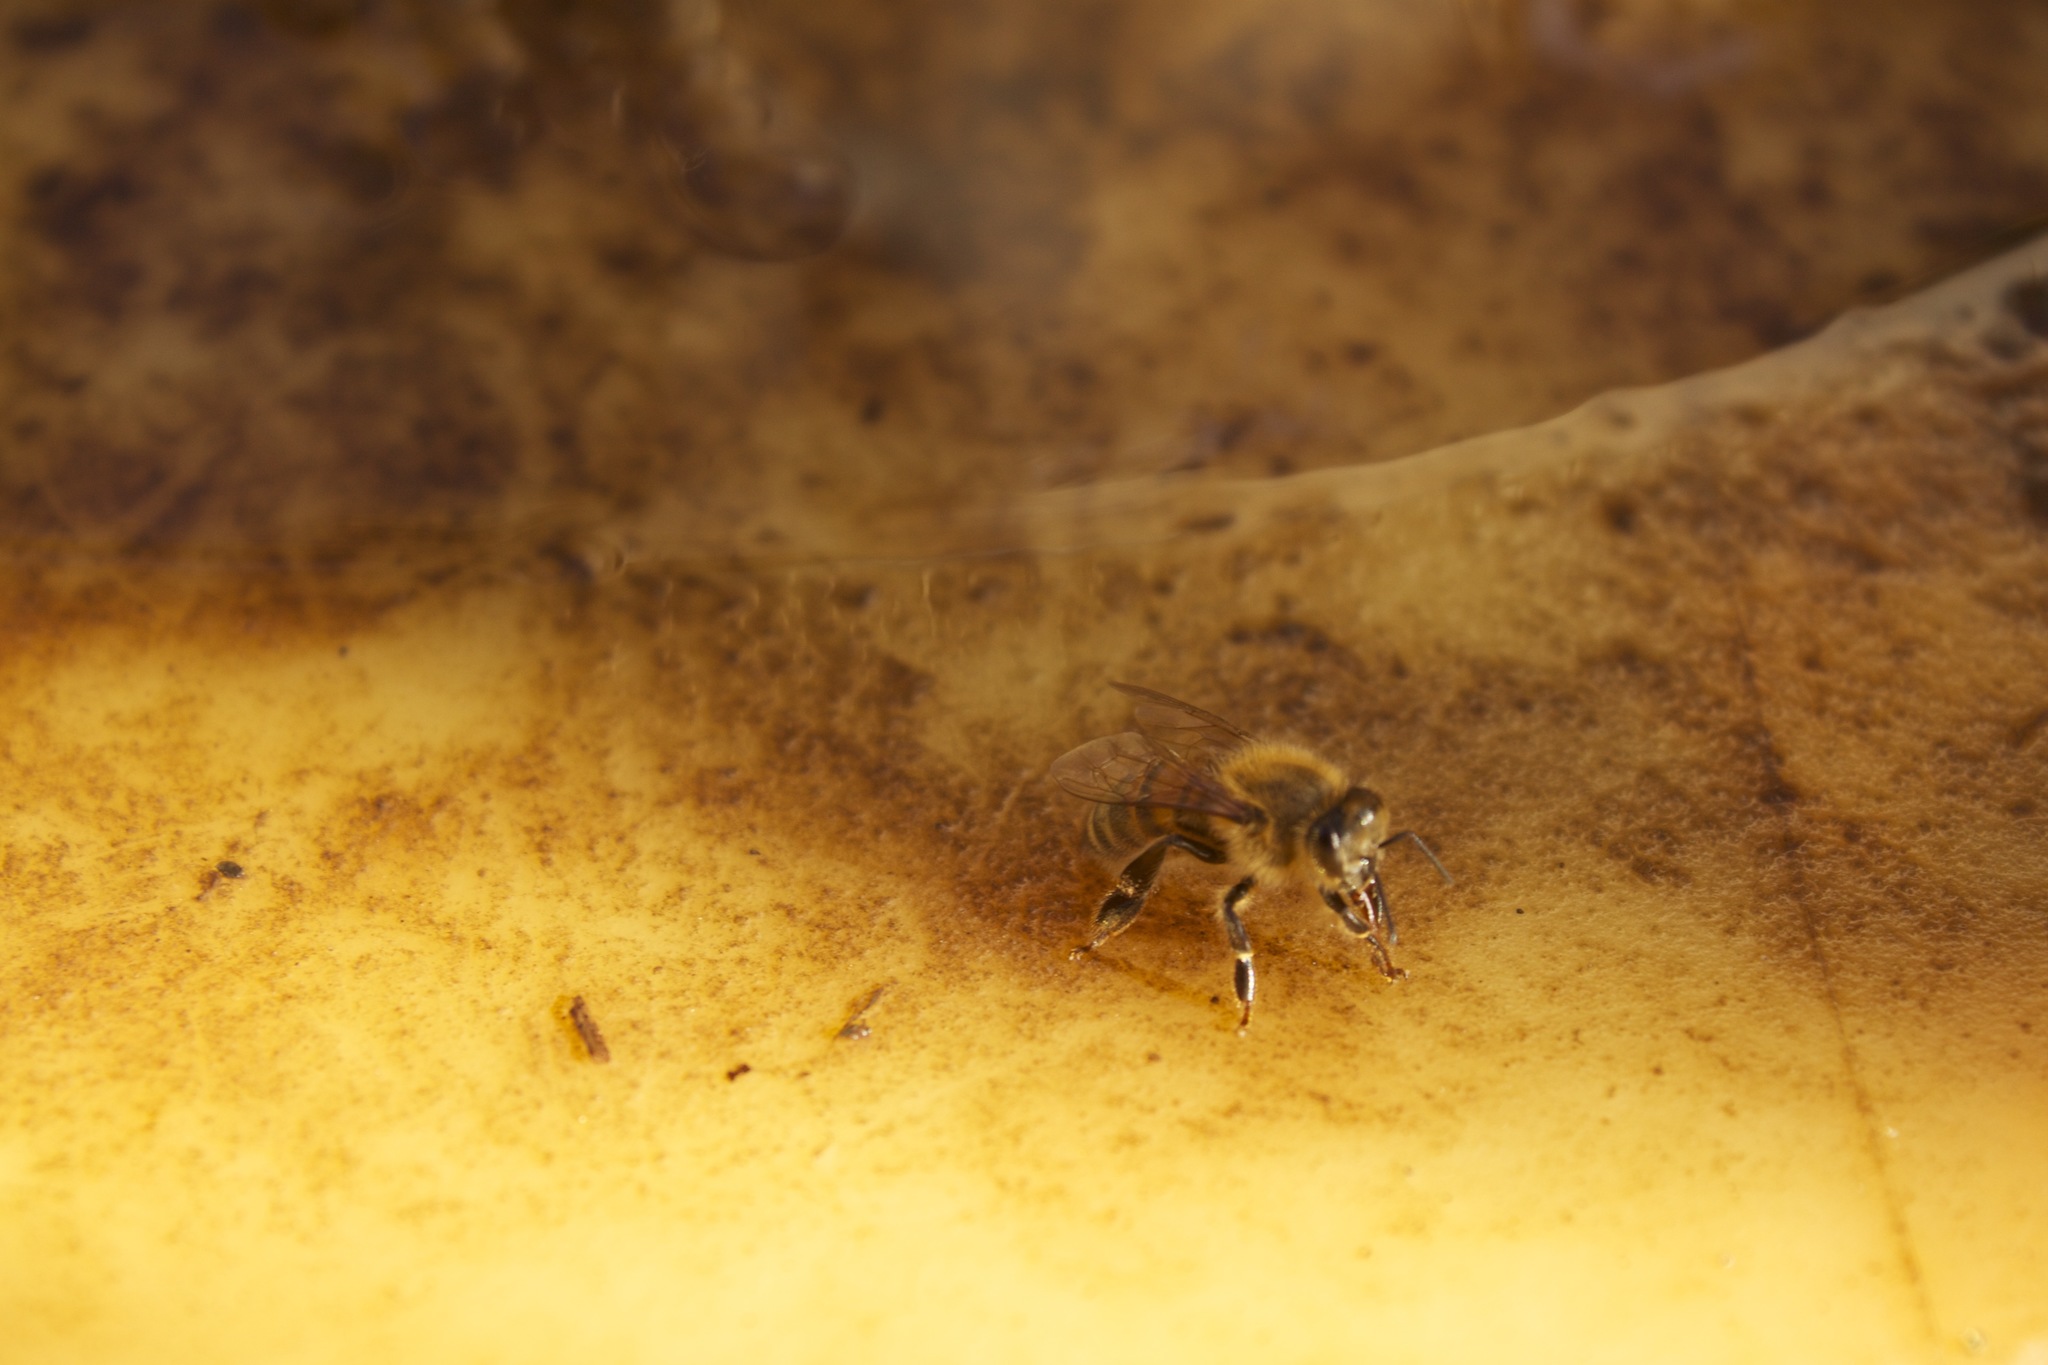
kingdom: Animalia
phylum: Arthropoda
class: Insecta
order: Hymenoptera
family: Apidae
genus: Apis
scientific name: Apis mellifera
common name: Honey bee
